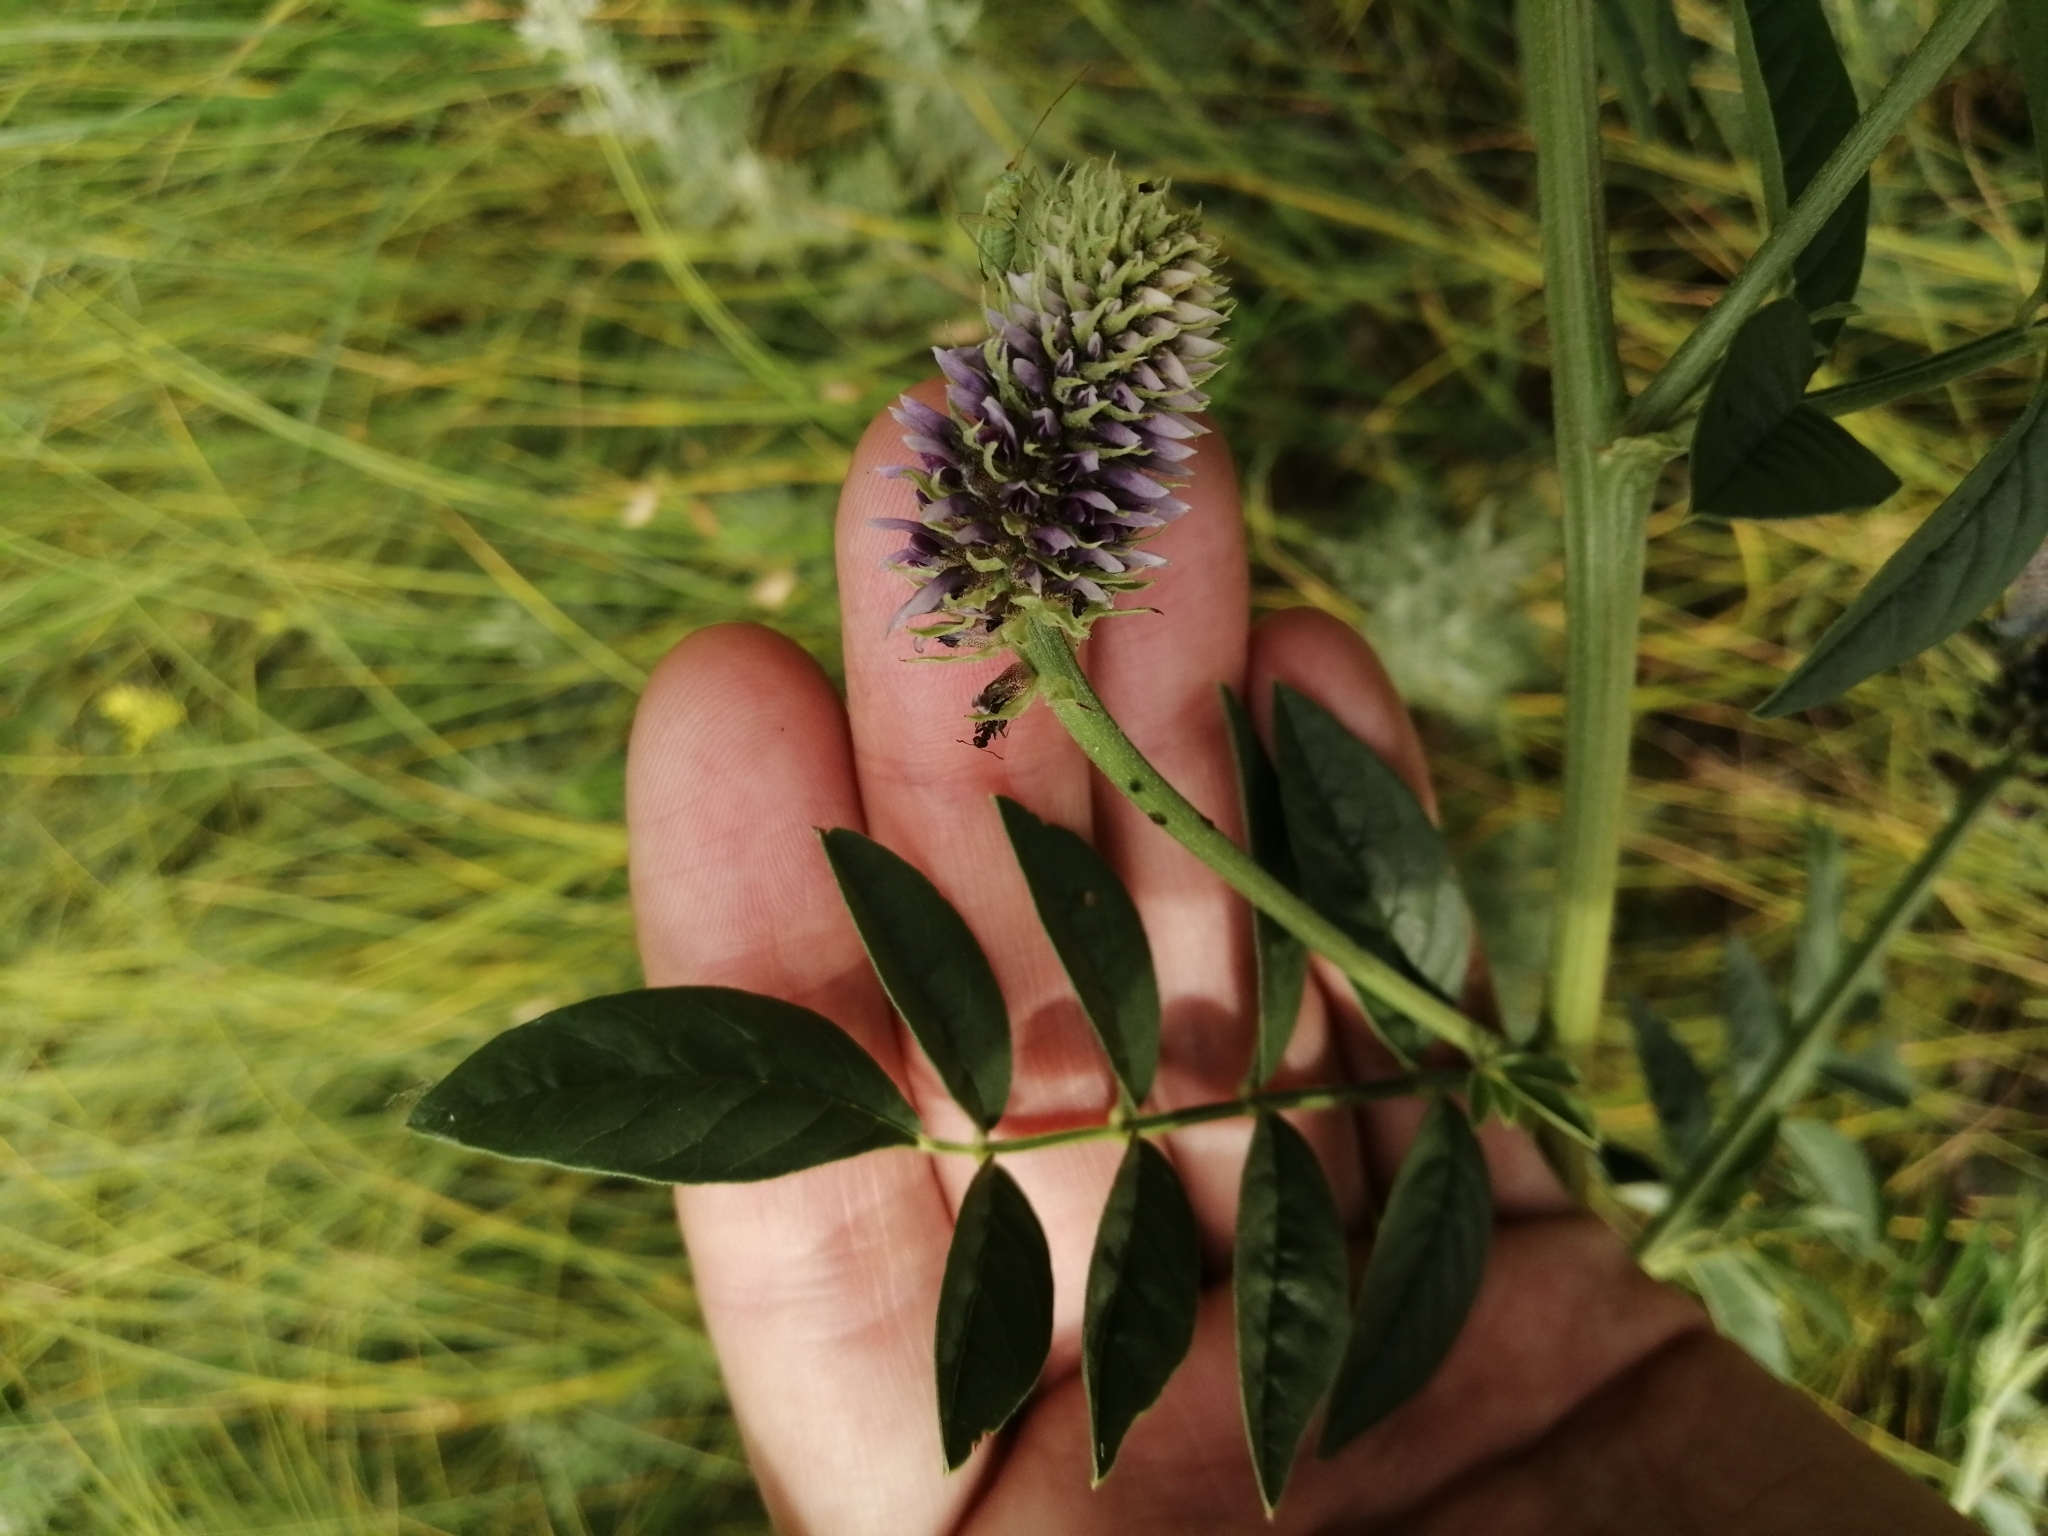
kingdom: Plantae
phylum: Tracheophyta
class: Magnoliopsida
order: Fabales
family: Fabaceae
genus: Glycyrrhiza
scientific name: Glycyrrhiza echinata
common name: German liquorice
